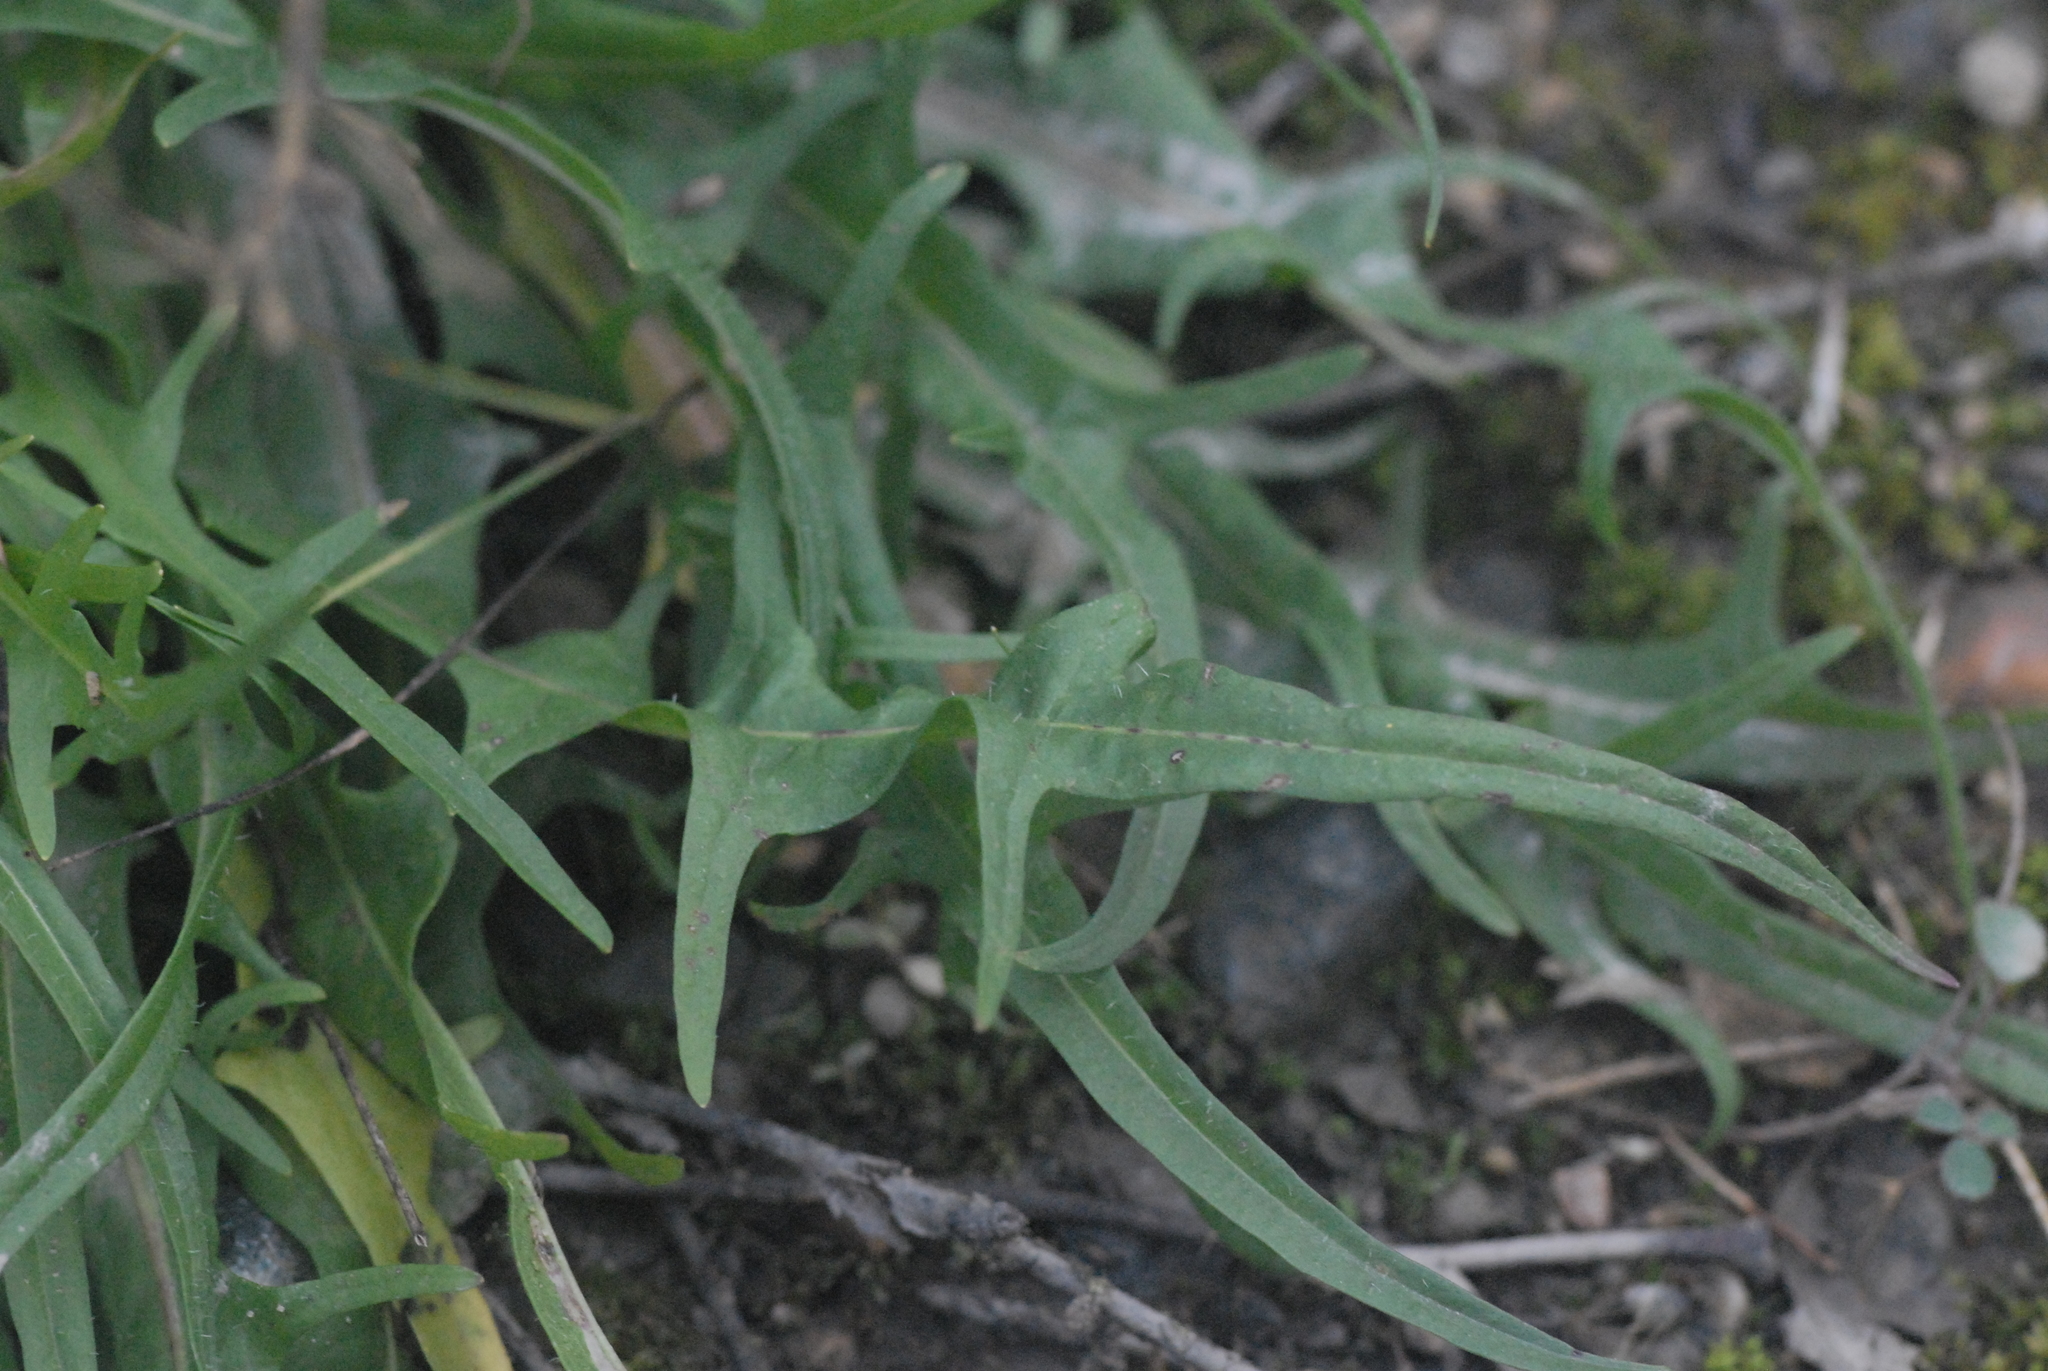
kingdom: Plantae
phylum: Tracheophyta
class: Magnoliopsida
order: Asterales
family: Asteraceae
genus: Scorzoneroides
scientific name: Scorzoneroides autumnalis
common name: Autumn hawkbit
